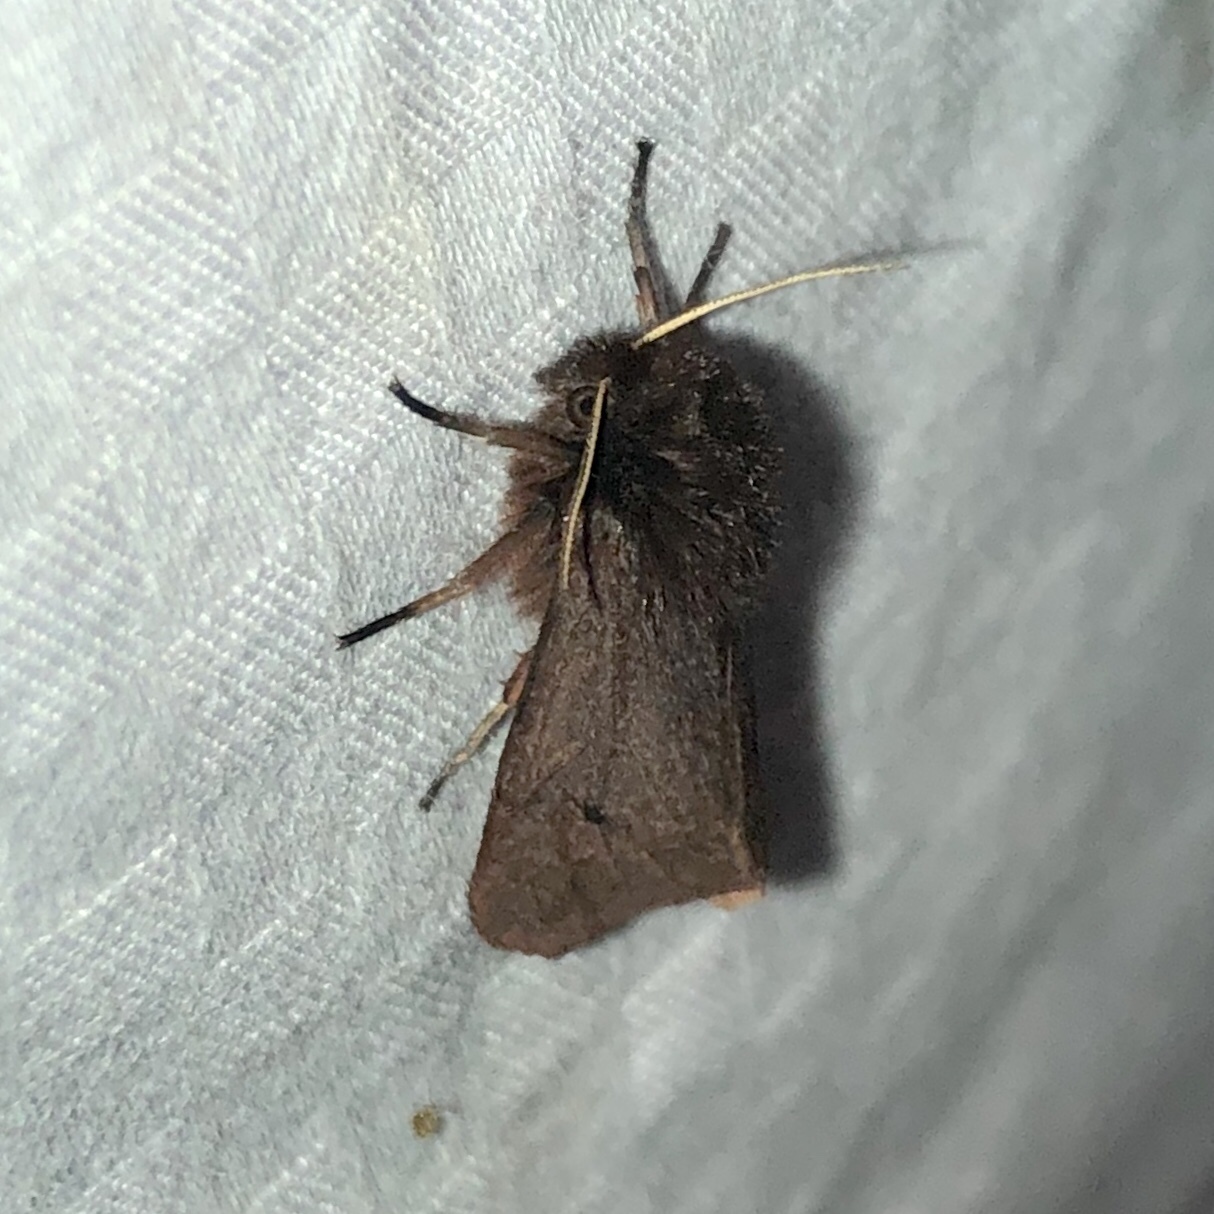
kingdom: Animalia
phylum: Arthropoda
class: Insecta
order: Lepidoptera
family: Erebidae
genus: Phragmatobia
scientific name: Phragmatobia fuliginosa
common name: Ruby tiger
